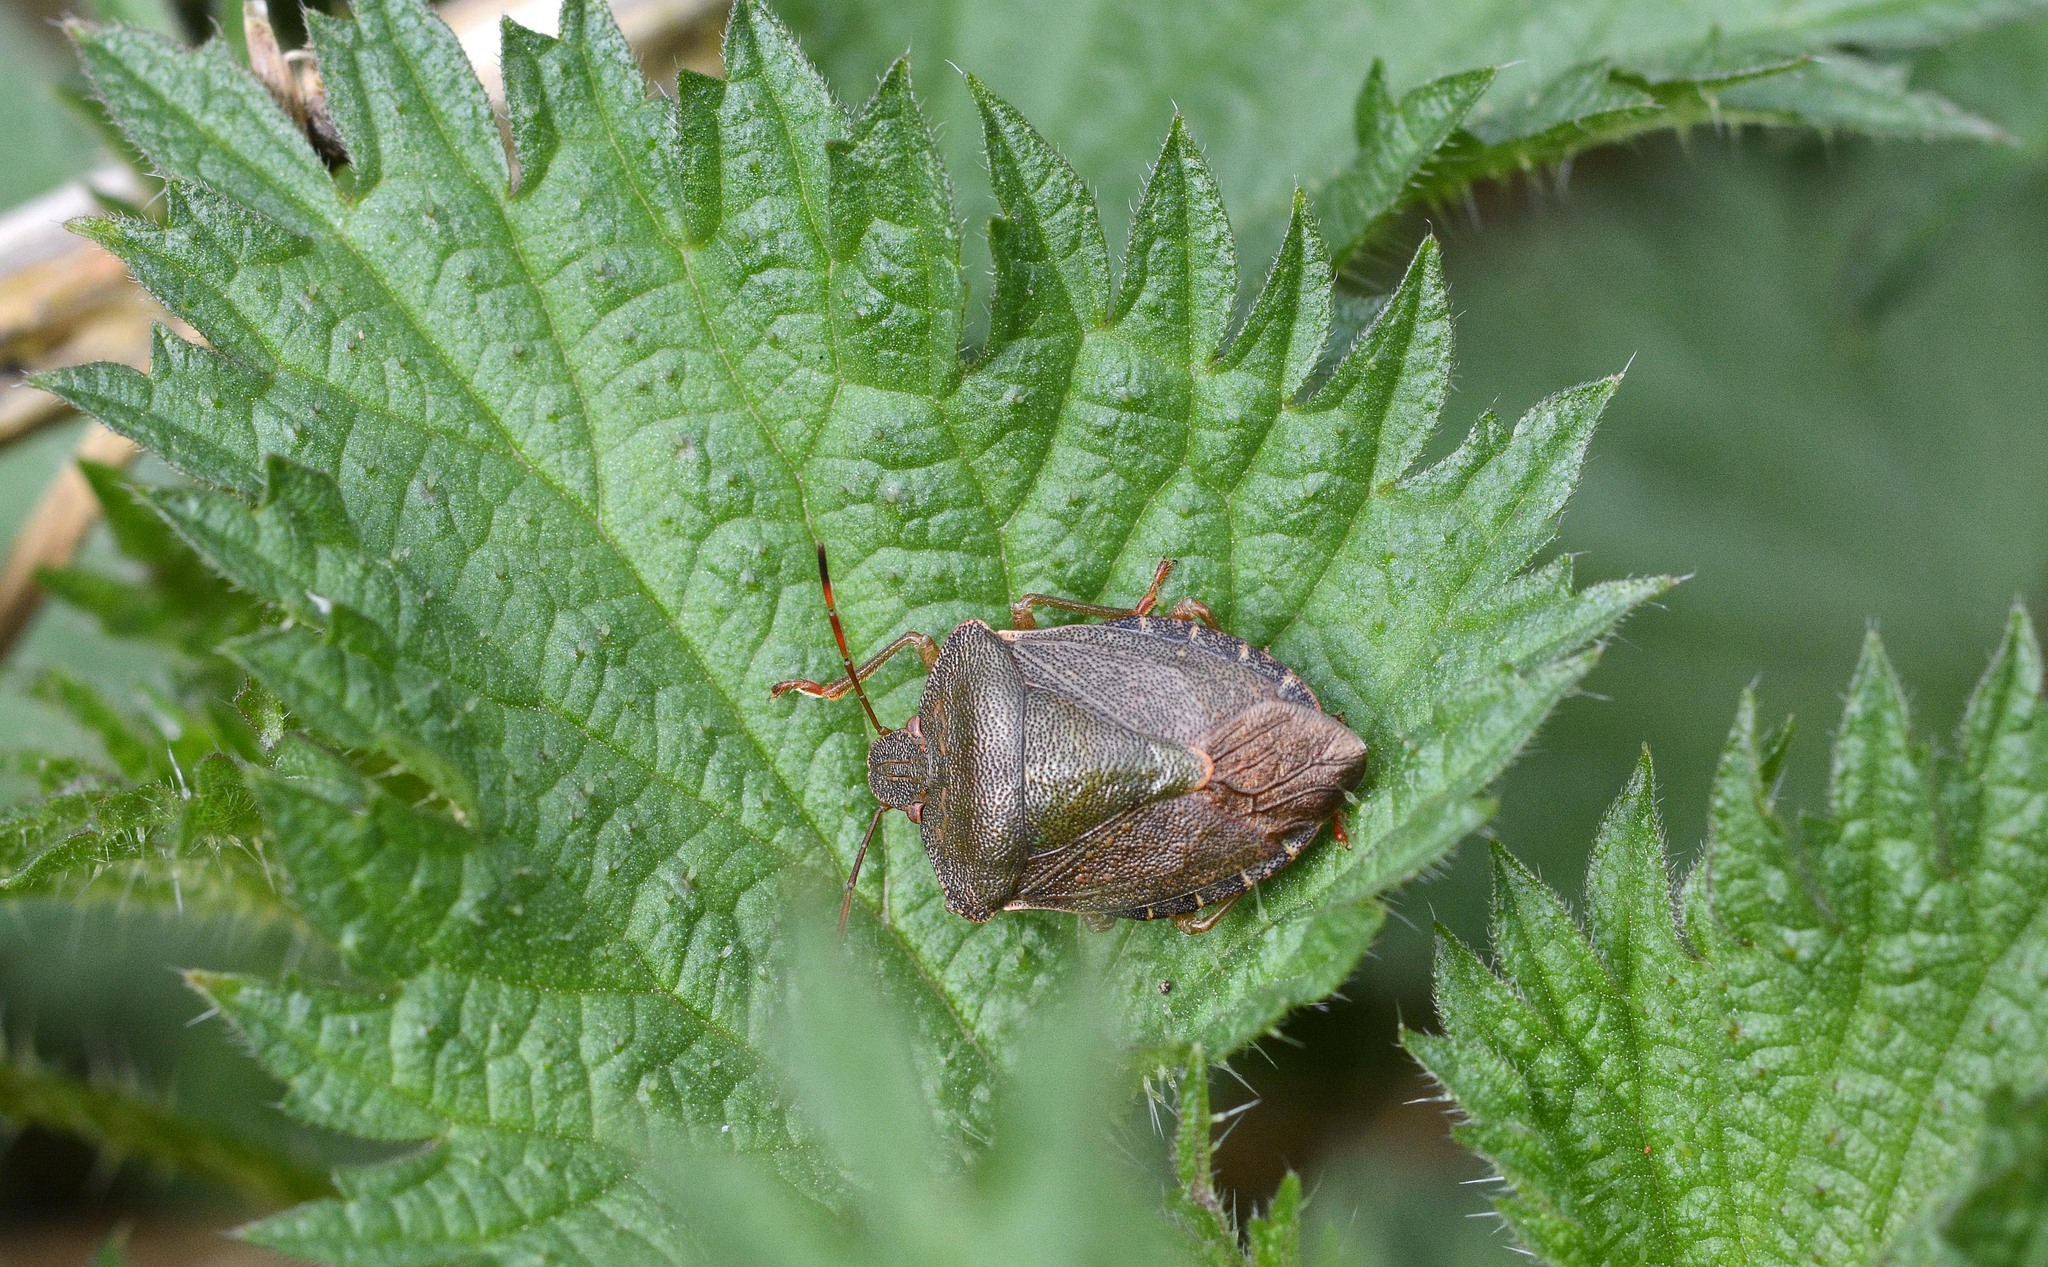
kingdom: Animalia
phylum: Arthropoda
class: Insecta
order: Hemiptera
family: Pentatomidae
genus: Palomena
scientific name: Palomena prasina
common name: Green shieldbug
